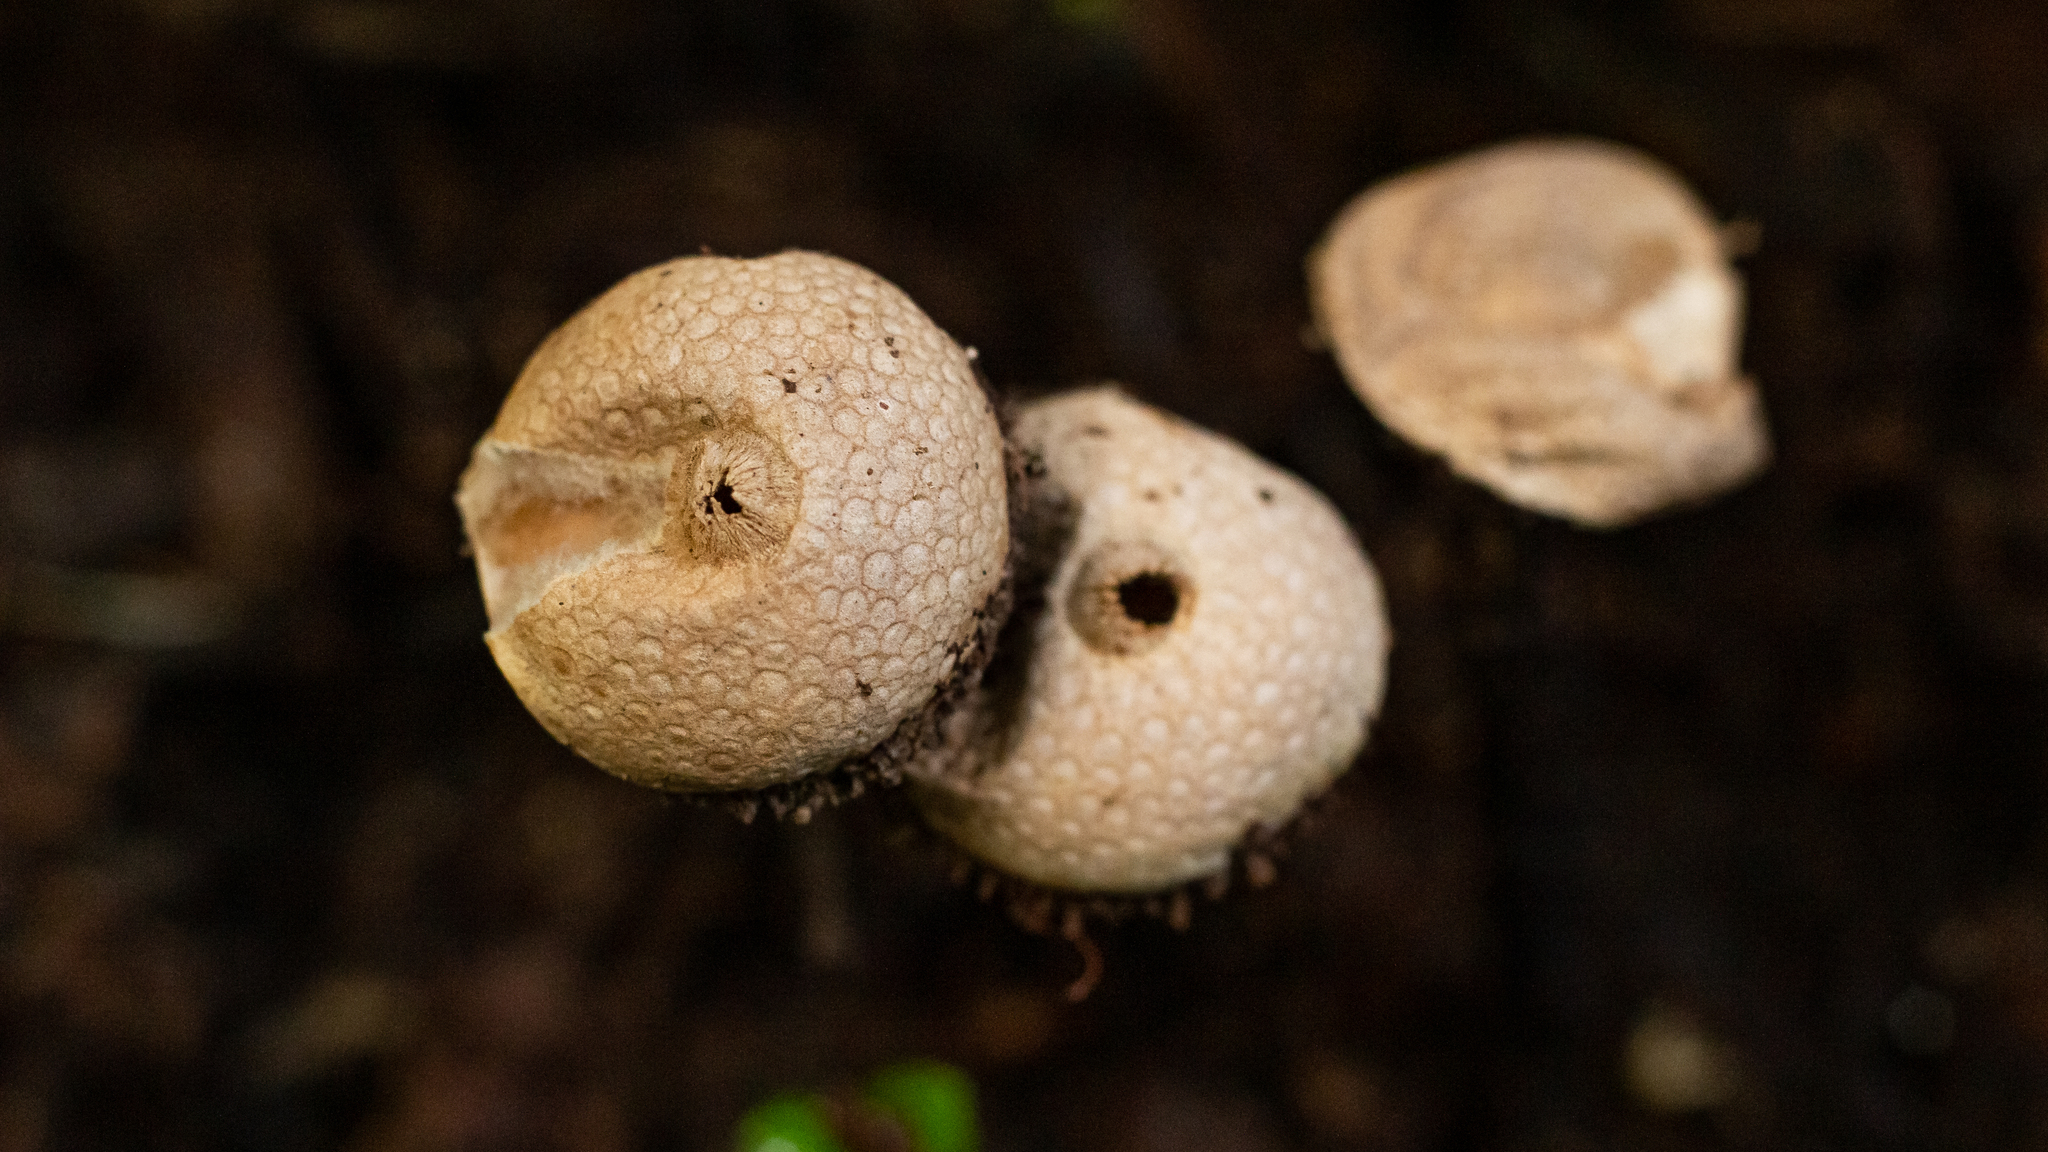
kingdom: Fungi
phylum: Basidiomycota
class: Agaricomycetes
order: Agaricales
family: Agaricaceae
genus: Tulostoma
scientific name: Tulostoma exasperatum
